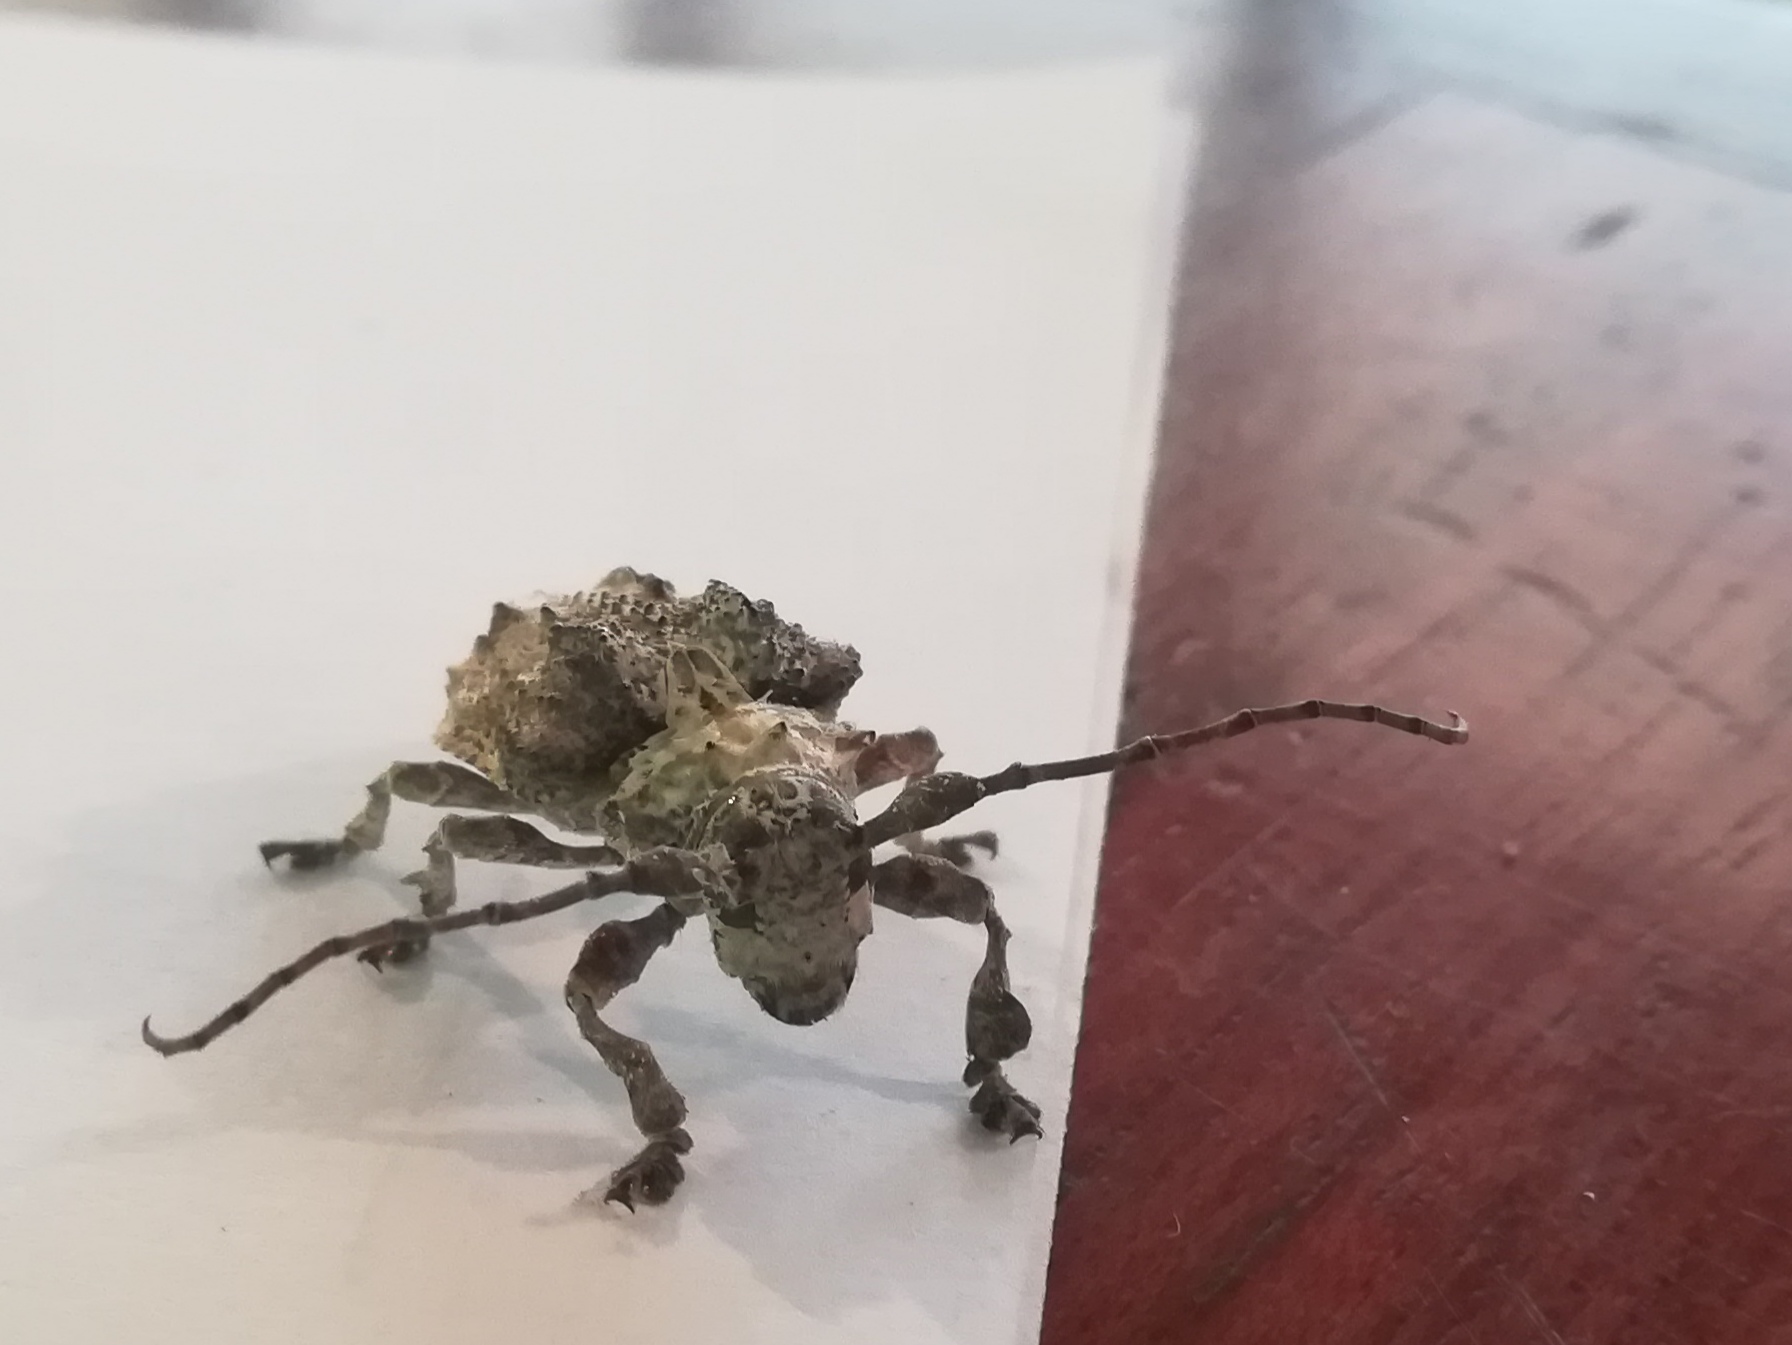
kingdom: Animalia
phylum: Arthropoda
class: Insecta
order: Coleoptera
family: Cerambycidae
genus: Onychocerus
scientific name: Onychocerus crassus
